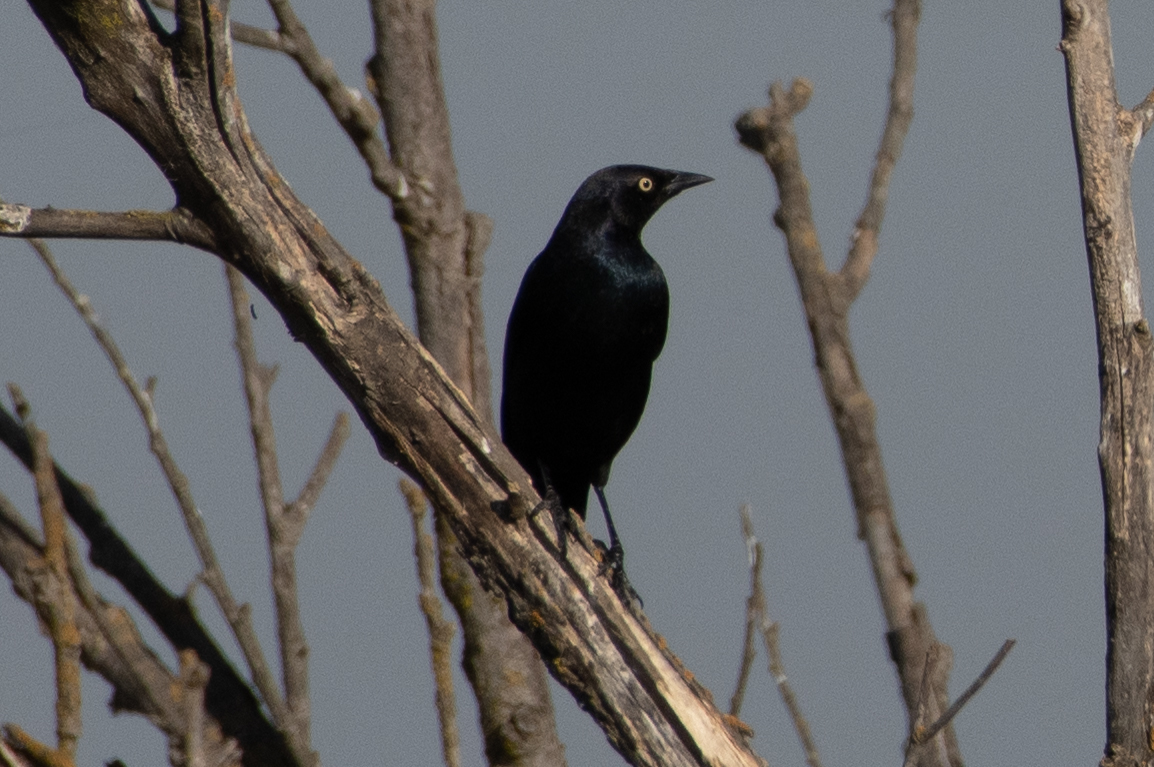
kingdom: Animalia
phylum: Chordata
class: Aves
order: Passeriformes
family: Icteridae
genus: Euphagus
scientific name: Euphagus cyanocephalus
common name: Brewer's blackbird
